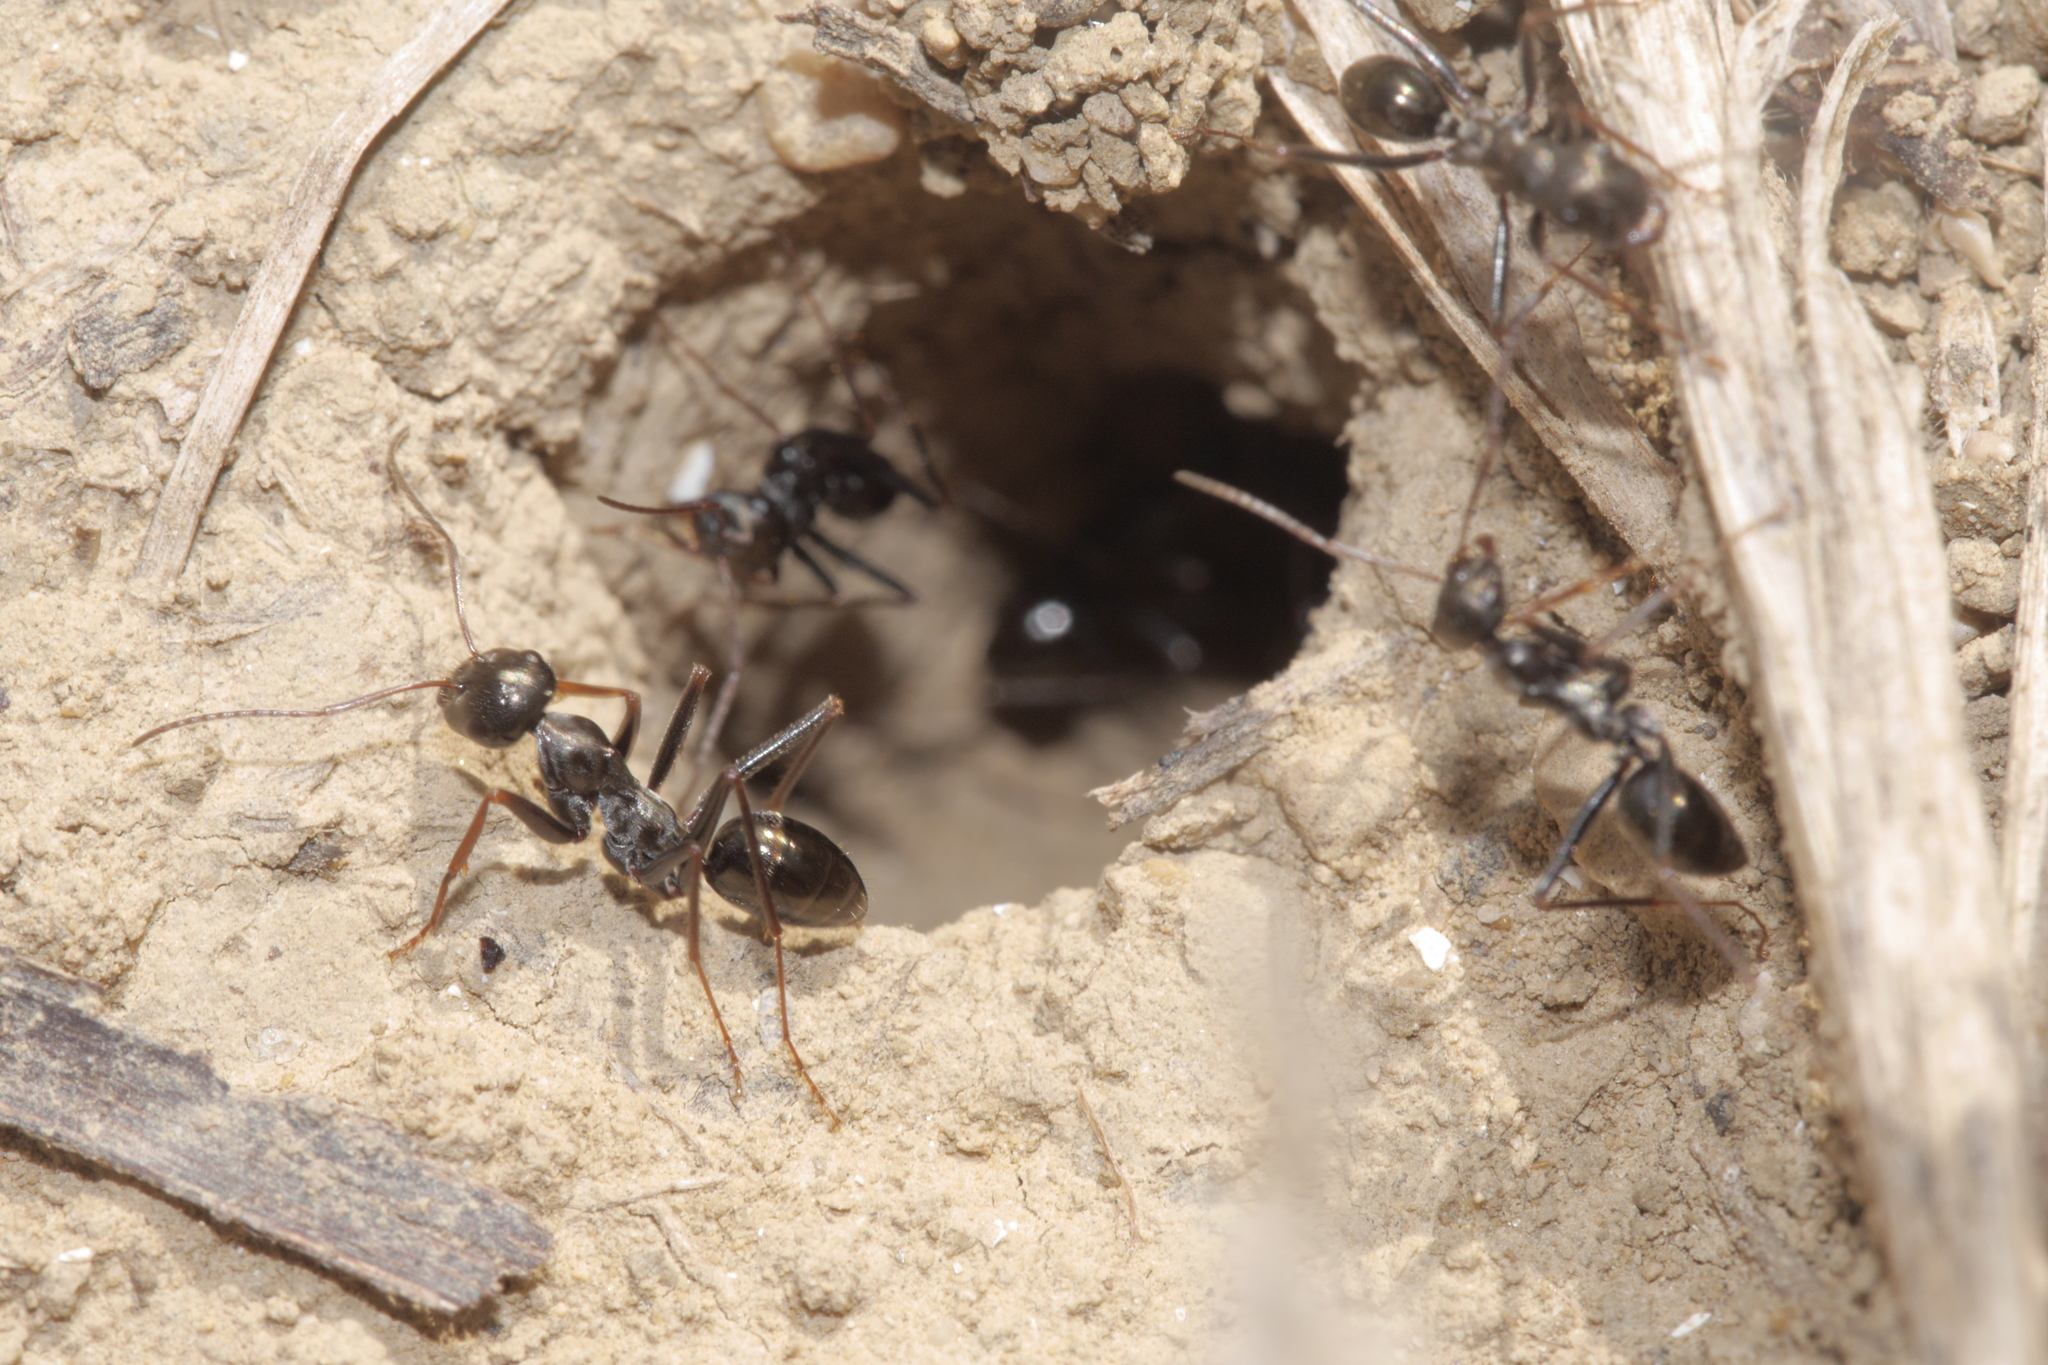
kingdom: Animalia
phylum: Arthropoda
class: Insecta
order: Hymenoptera
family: Formicidae
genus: Cataglyphis
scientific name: Cataglyphis piliscapus
